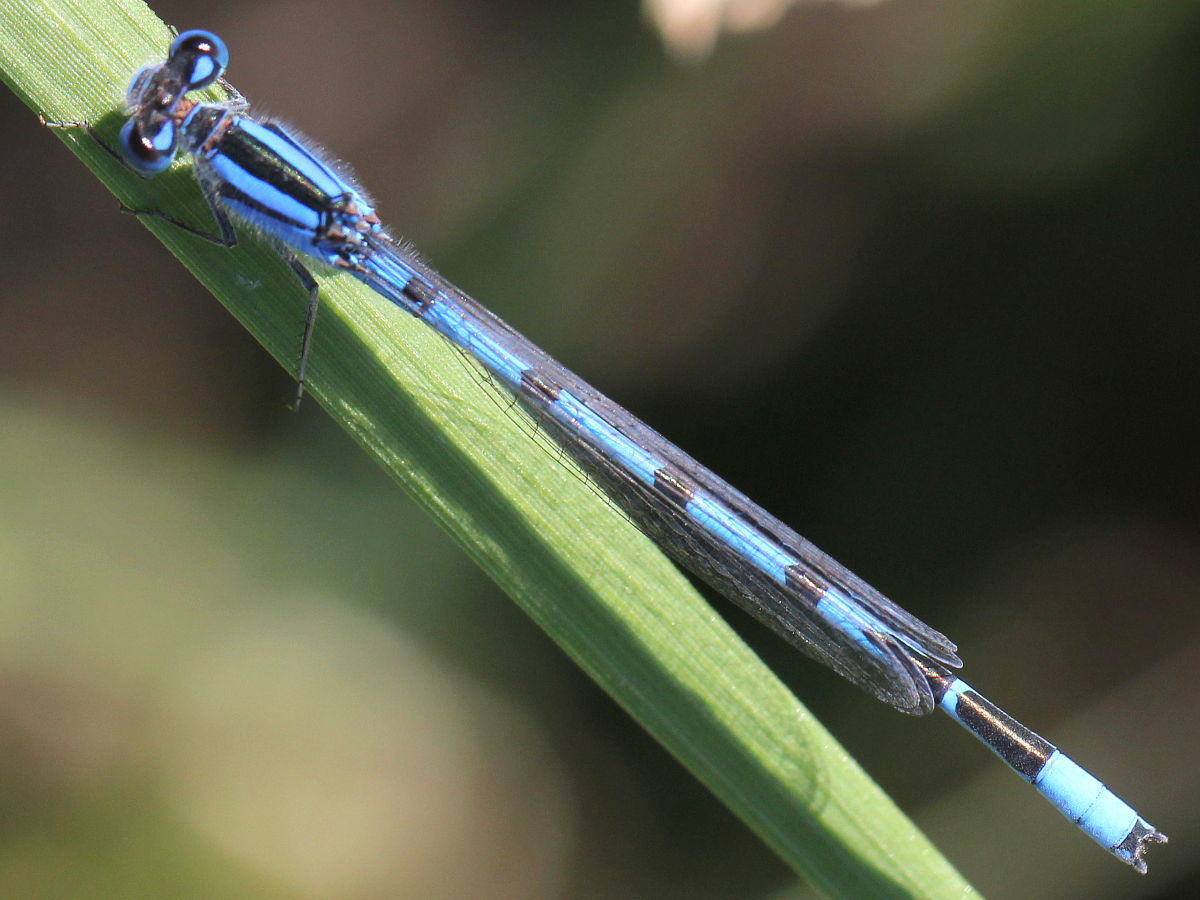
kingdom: Animalia
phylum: Arthropoda
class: Insecta
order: Odonata
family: Coenagrionidae
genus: Enallagma
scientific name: Enallagma civile
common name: Damselfly
